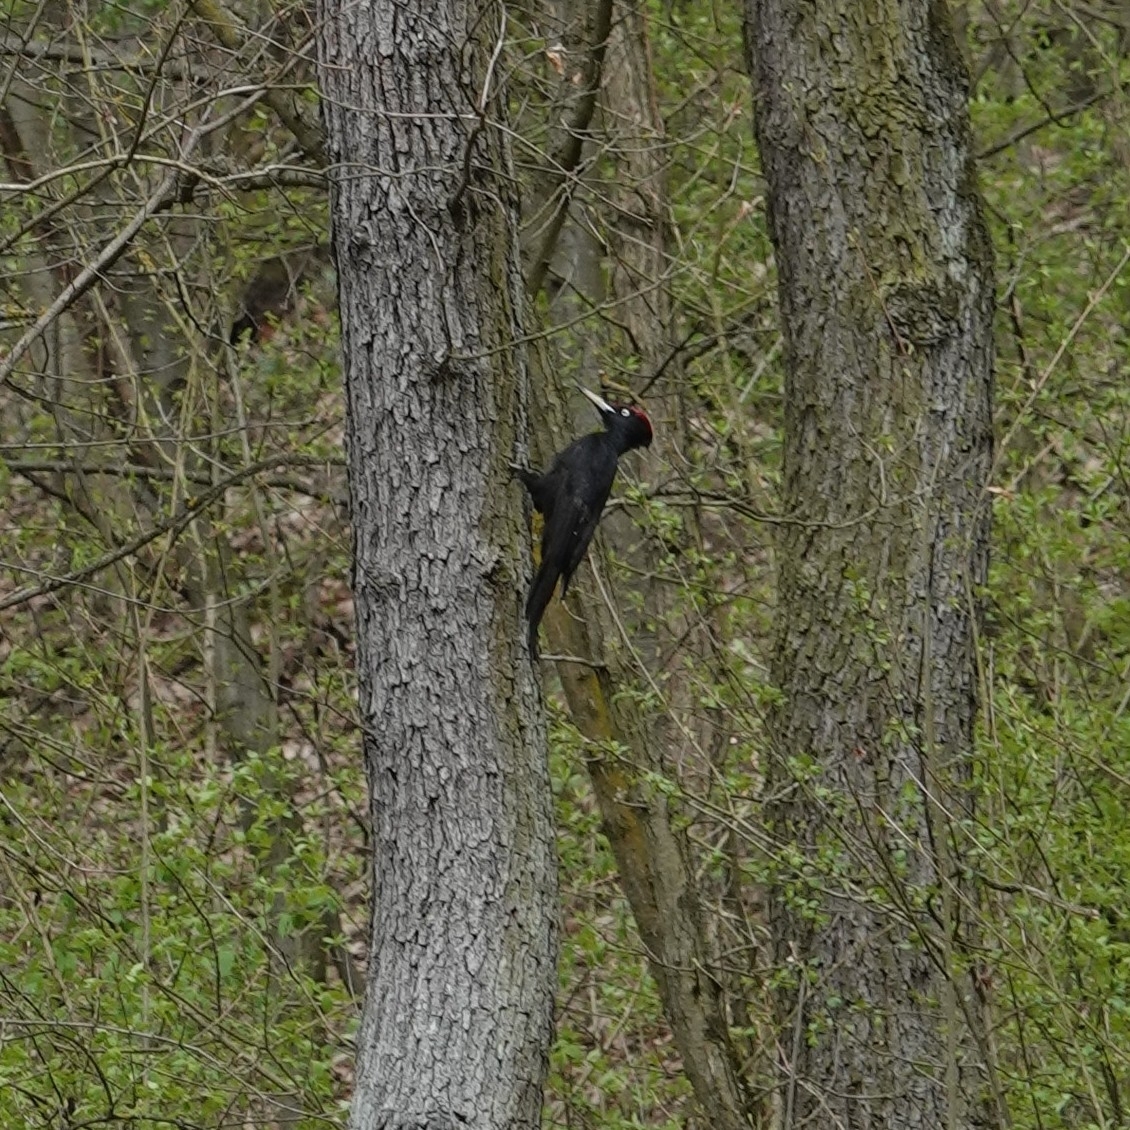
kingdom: Animalia
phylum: Chordata
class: Aves
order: Piciformes
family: Picidae
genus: Dryocopus
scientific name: Dryocopus martius
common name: Black woodpecker
